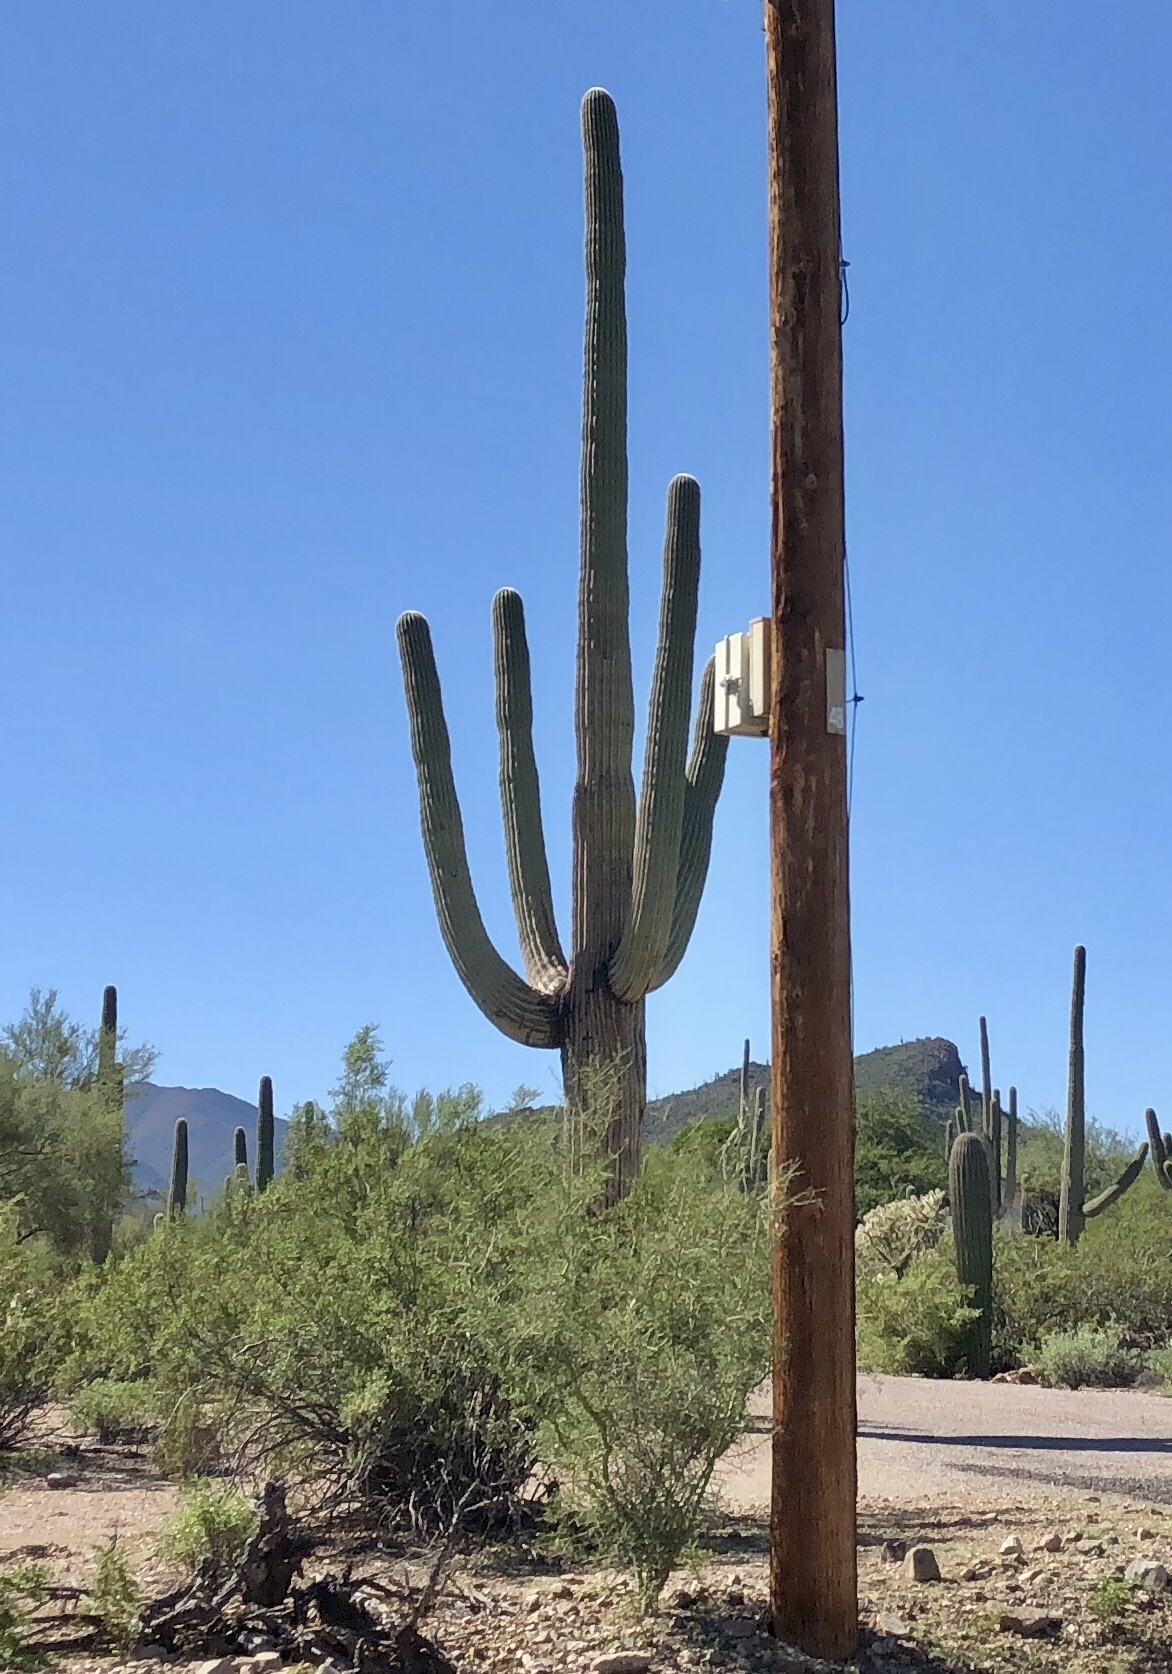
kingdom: Plantae
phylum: Tracheophyta
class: Magnoliopsida
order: Caryophyllales
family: Cactaceae
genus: Carnegiea
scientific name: Carnegiea gigantea
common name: Saguaro
